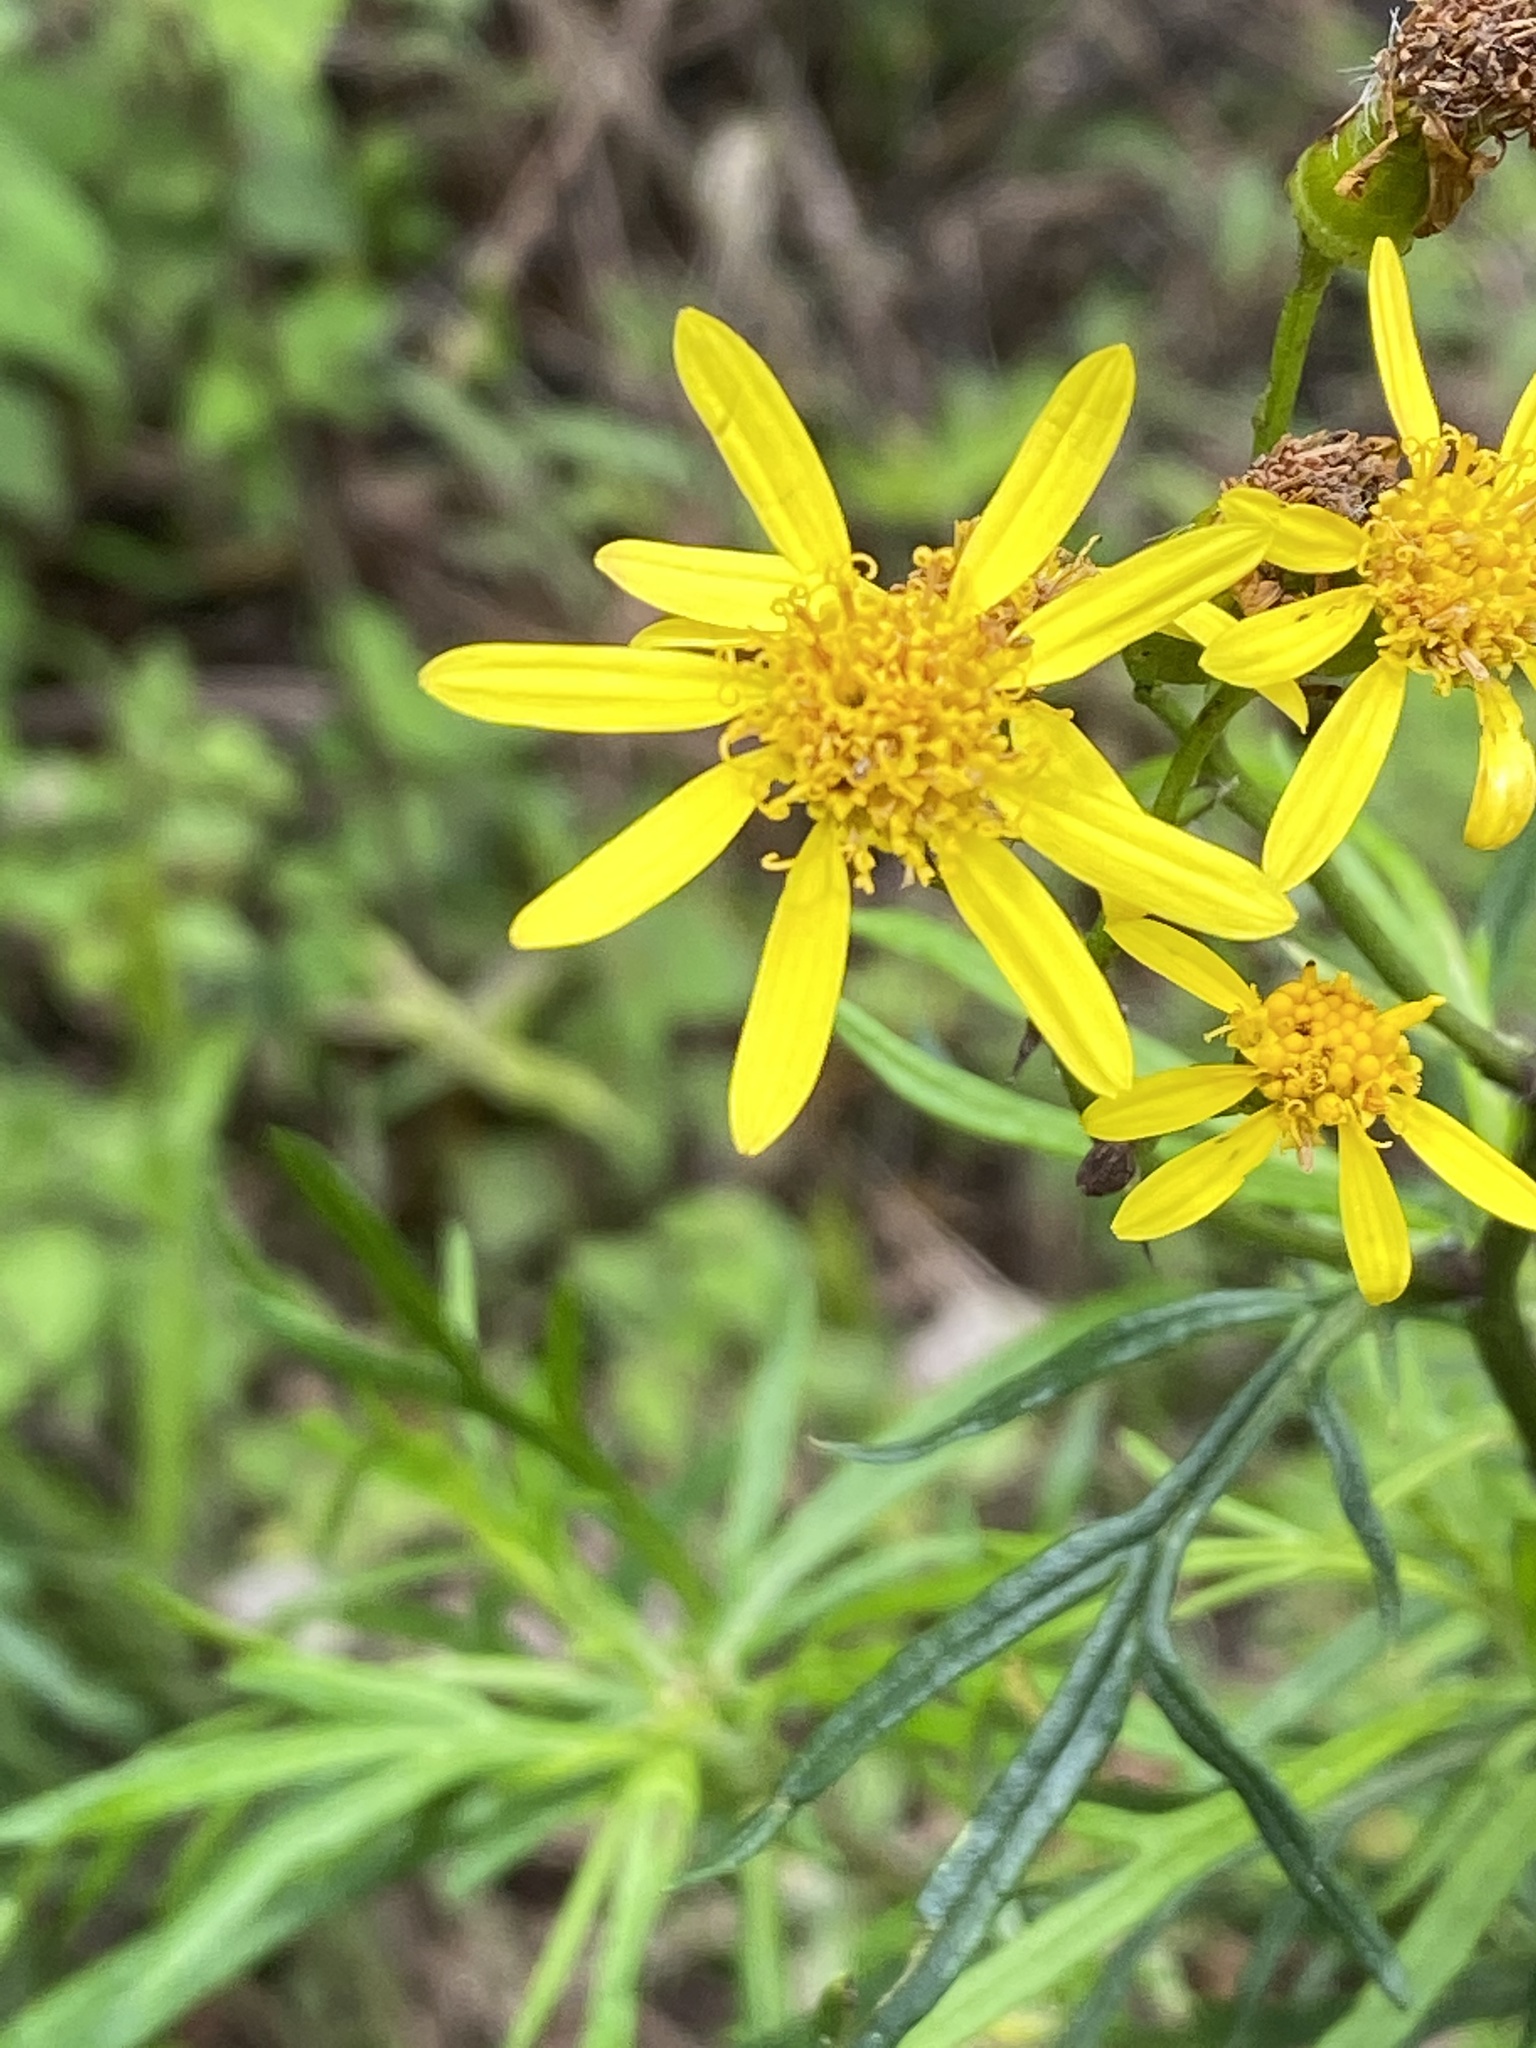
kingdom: Plantae
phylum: Tracheophyta
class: Magnoliopsida
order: Asterales
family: Asteraceae
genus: Senecio
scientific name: Senecio brasiliensis
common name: Hemp-leaf ragwort
